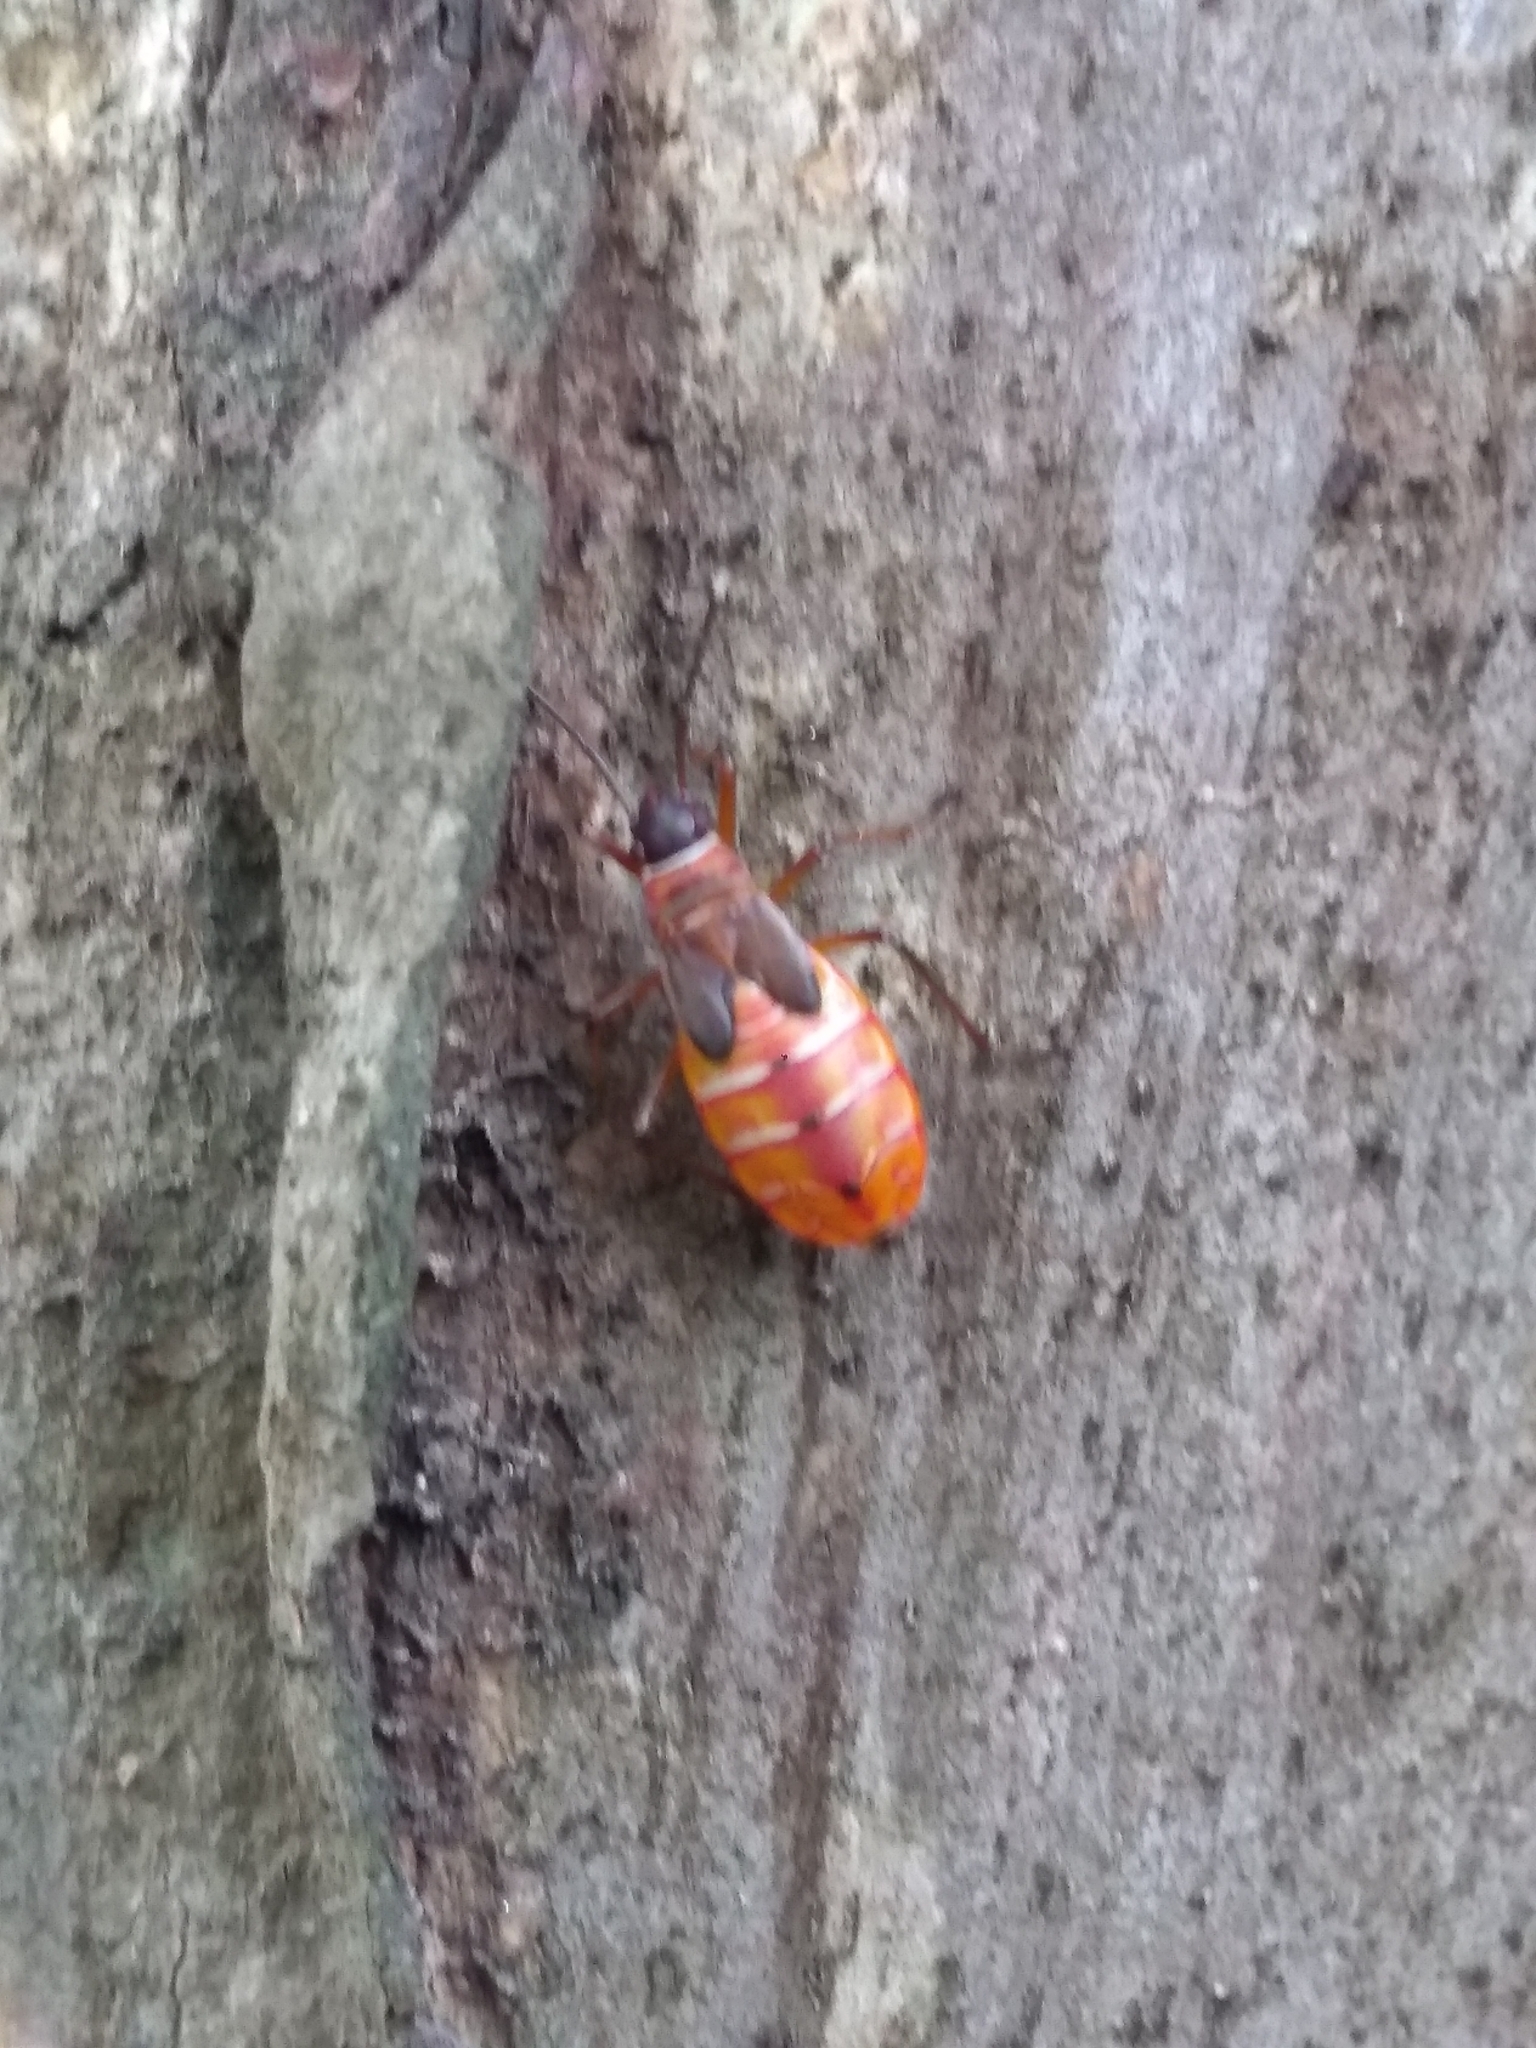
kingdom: Animalia
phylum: Arthropoda
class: Insecta
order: Hemiptera
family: Pyrrhocoridae
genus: Dysdercus
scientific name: Dysdercus
